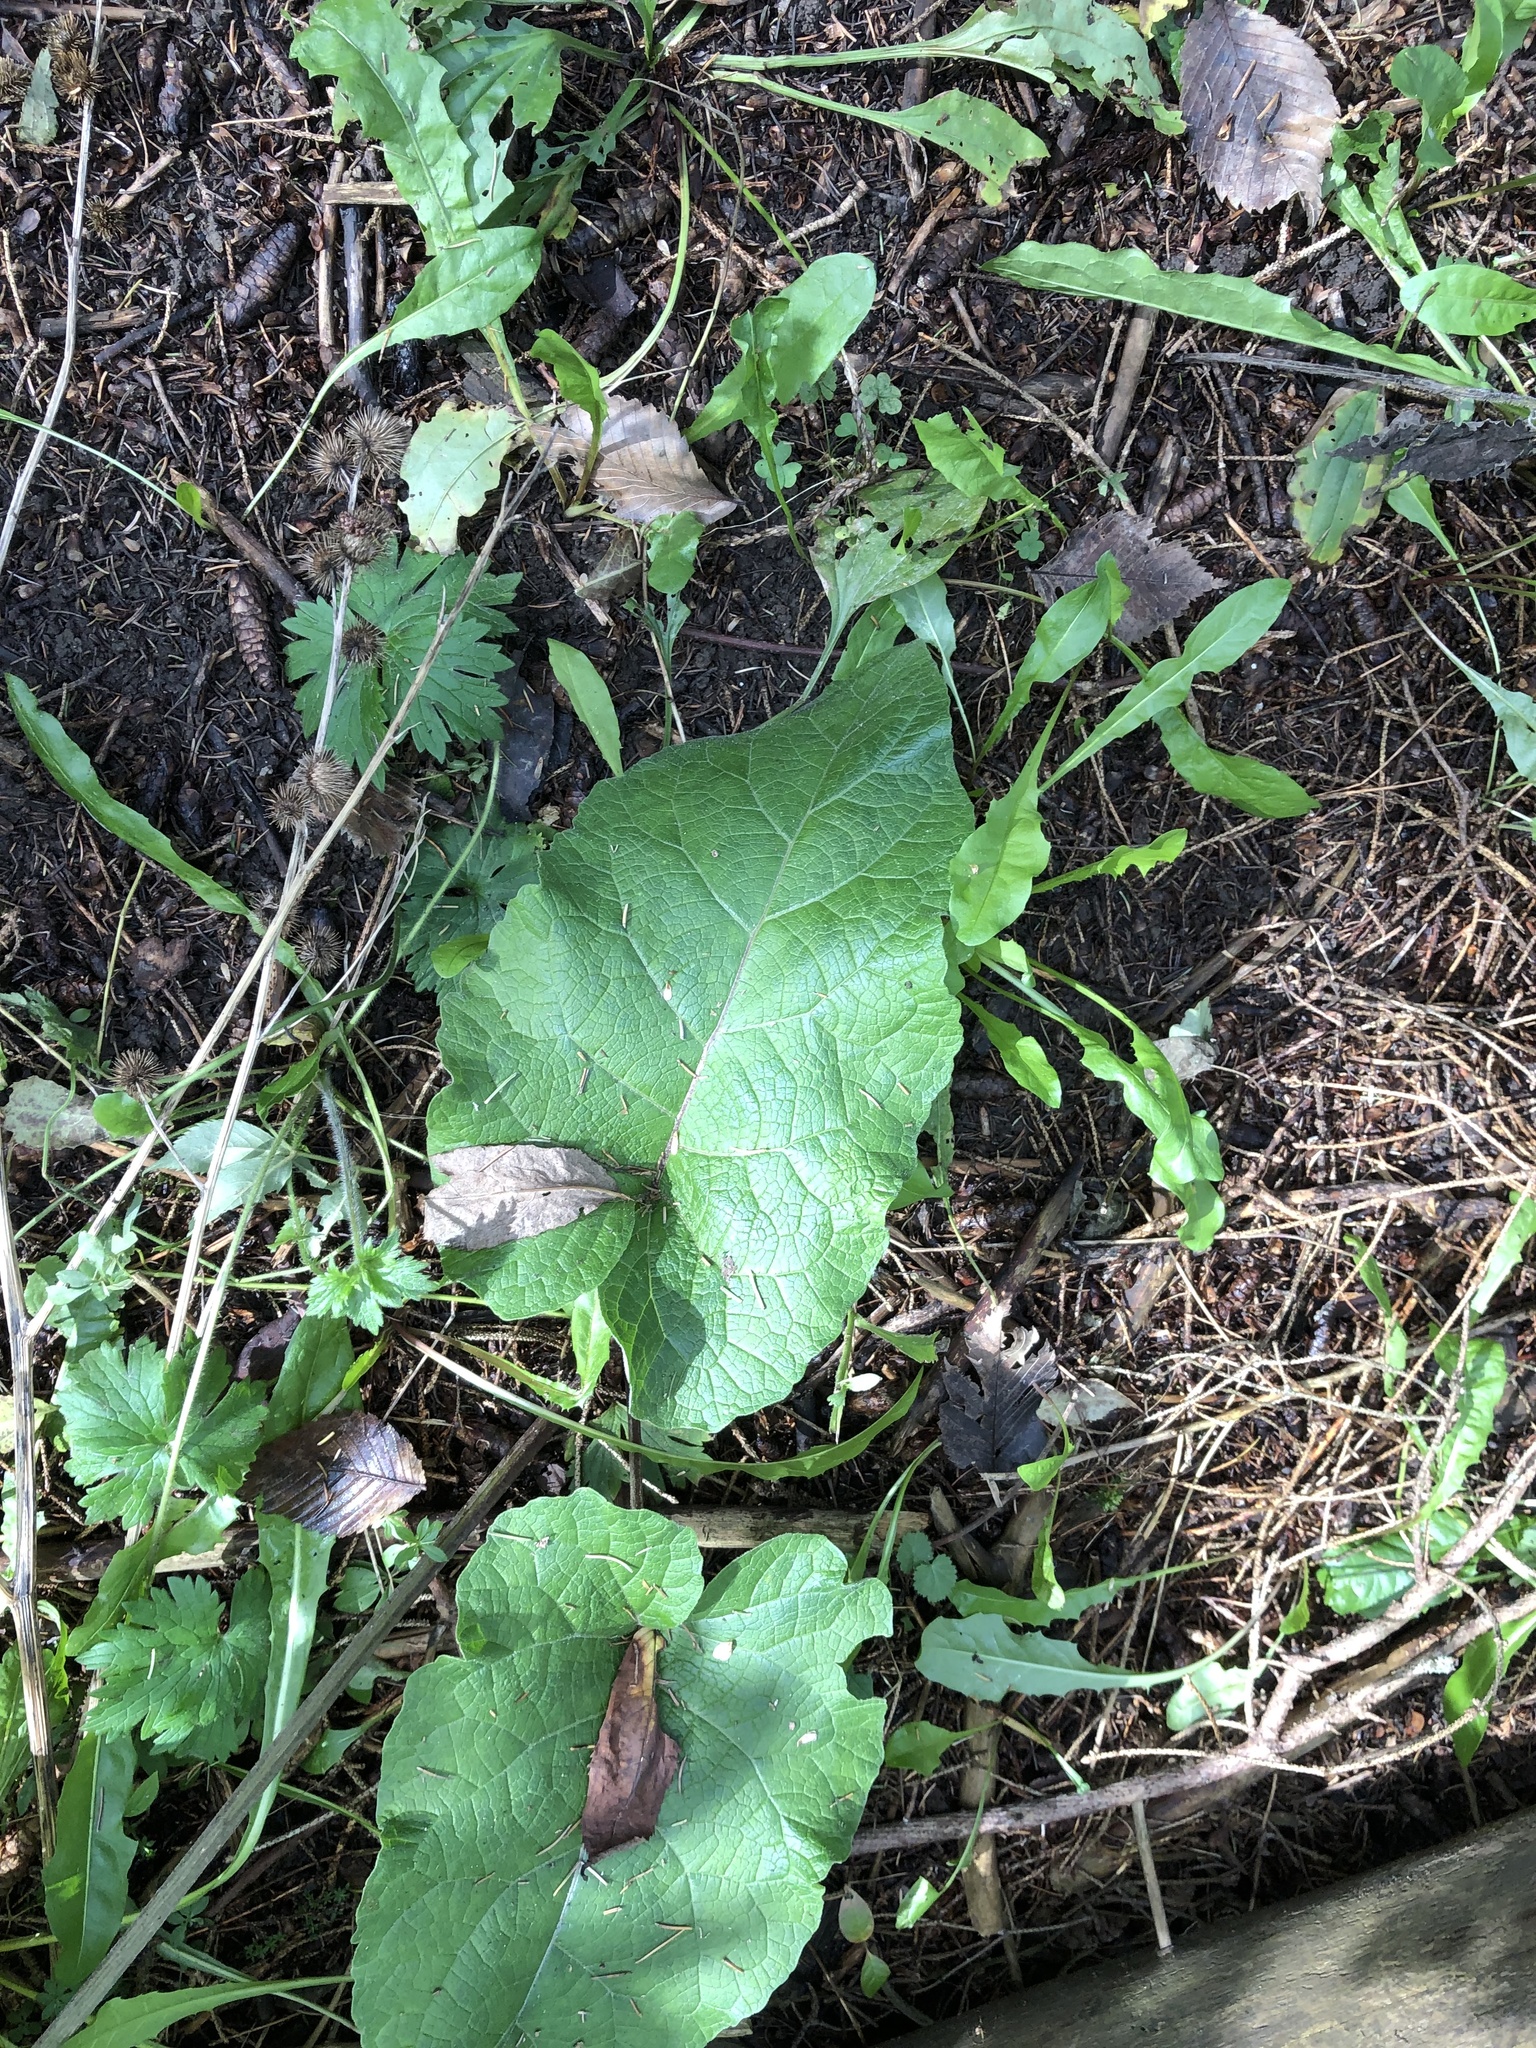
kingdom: Plantae
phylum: Tracheophyta
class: Magnoliopsida
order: Asterales
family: Asteraceae
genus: Arctium
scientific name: Arctium
